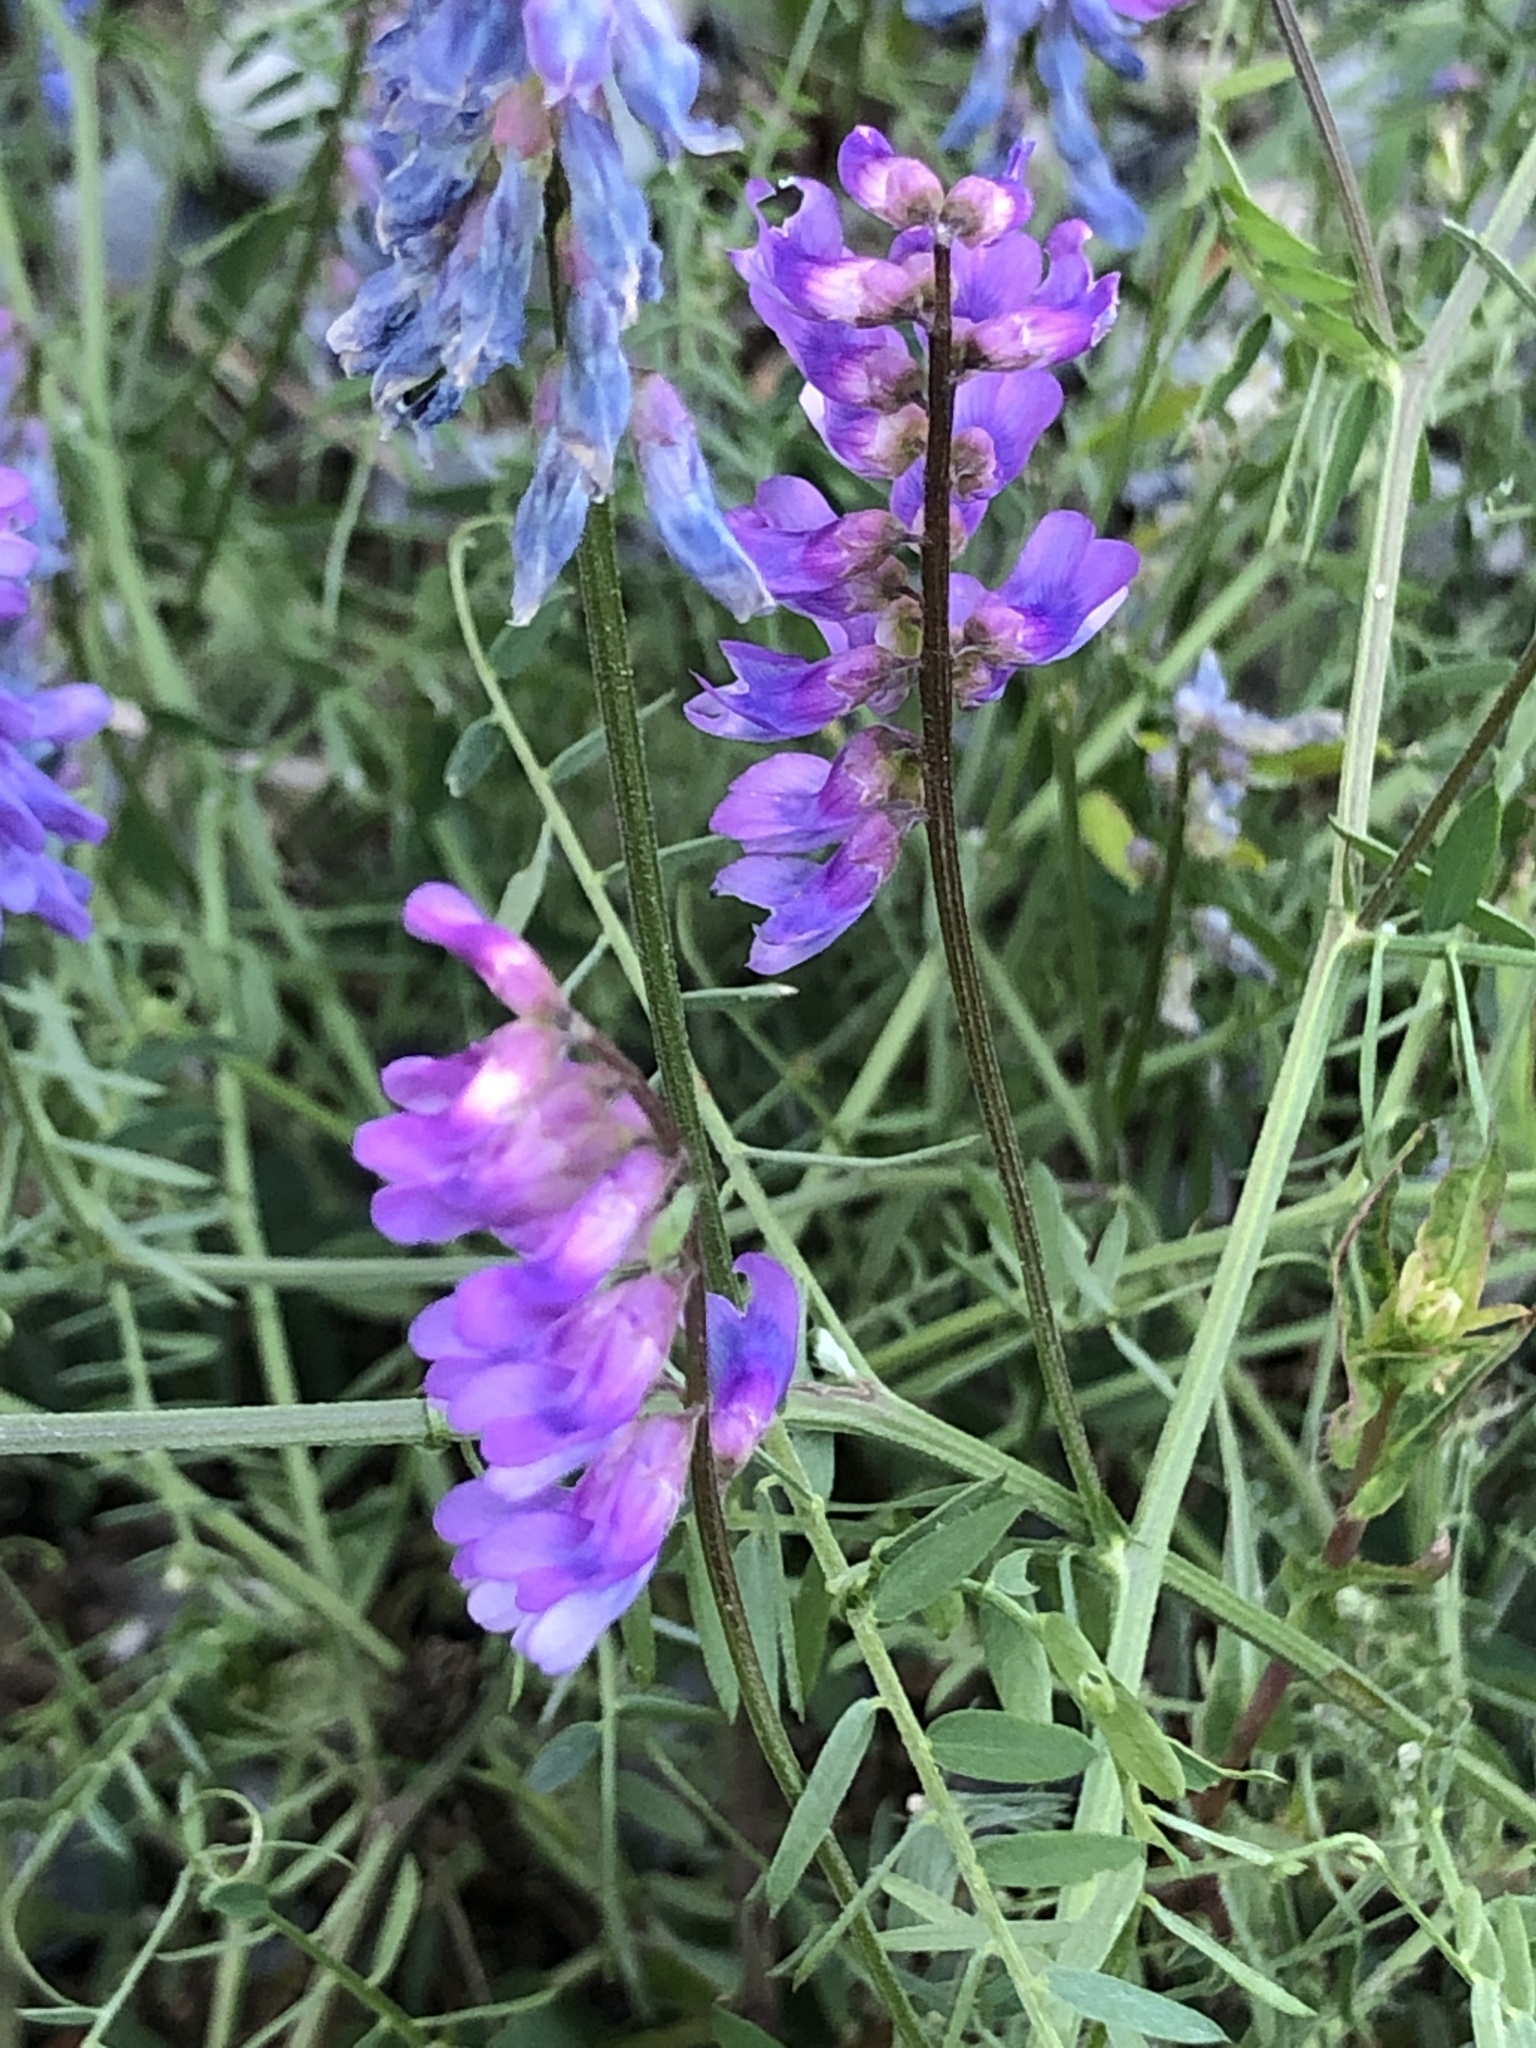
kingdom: Plantae
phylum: Tracheophyta
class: Magnoliopsida
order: Fabales
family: Fabaceae
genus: Vicia
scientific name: Vicia cracca
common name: Bird vetch
